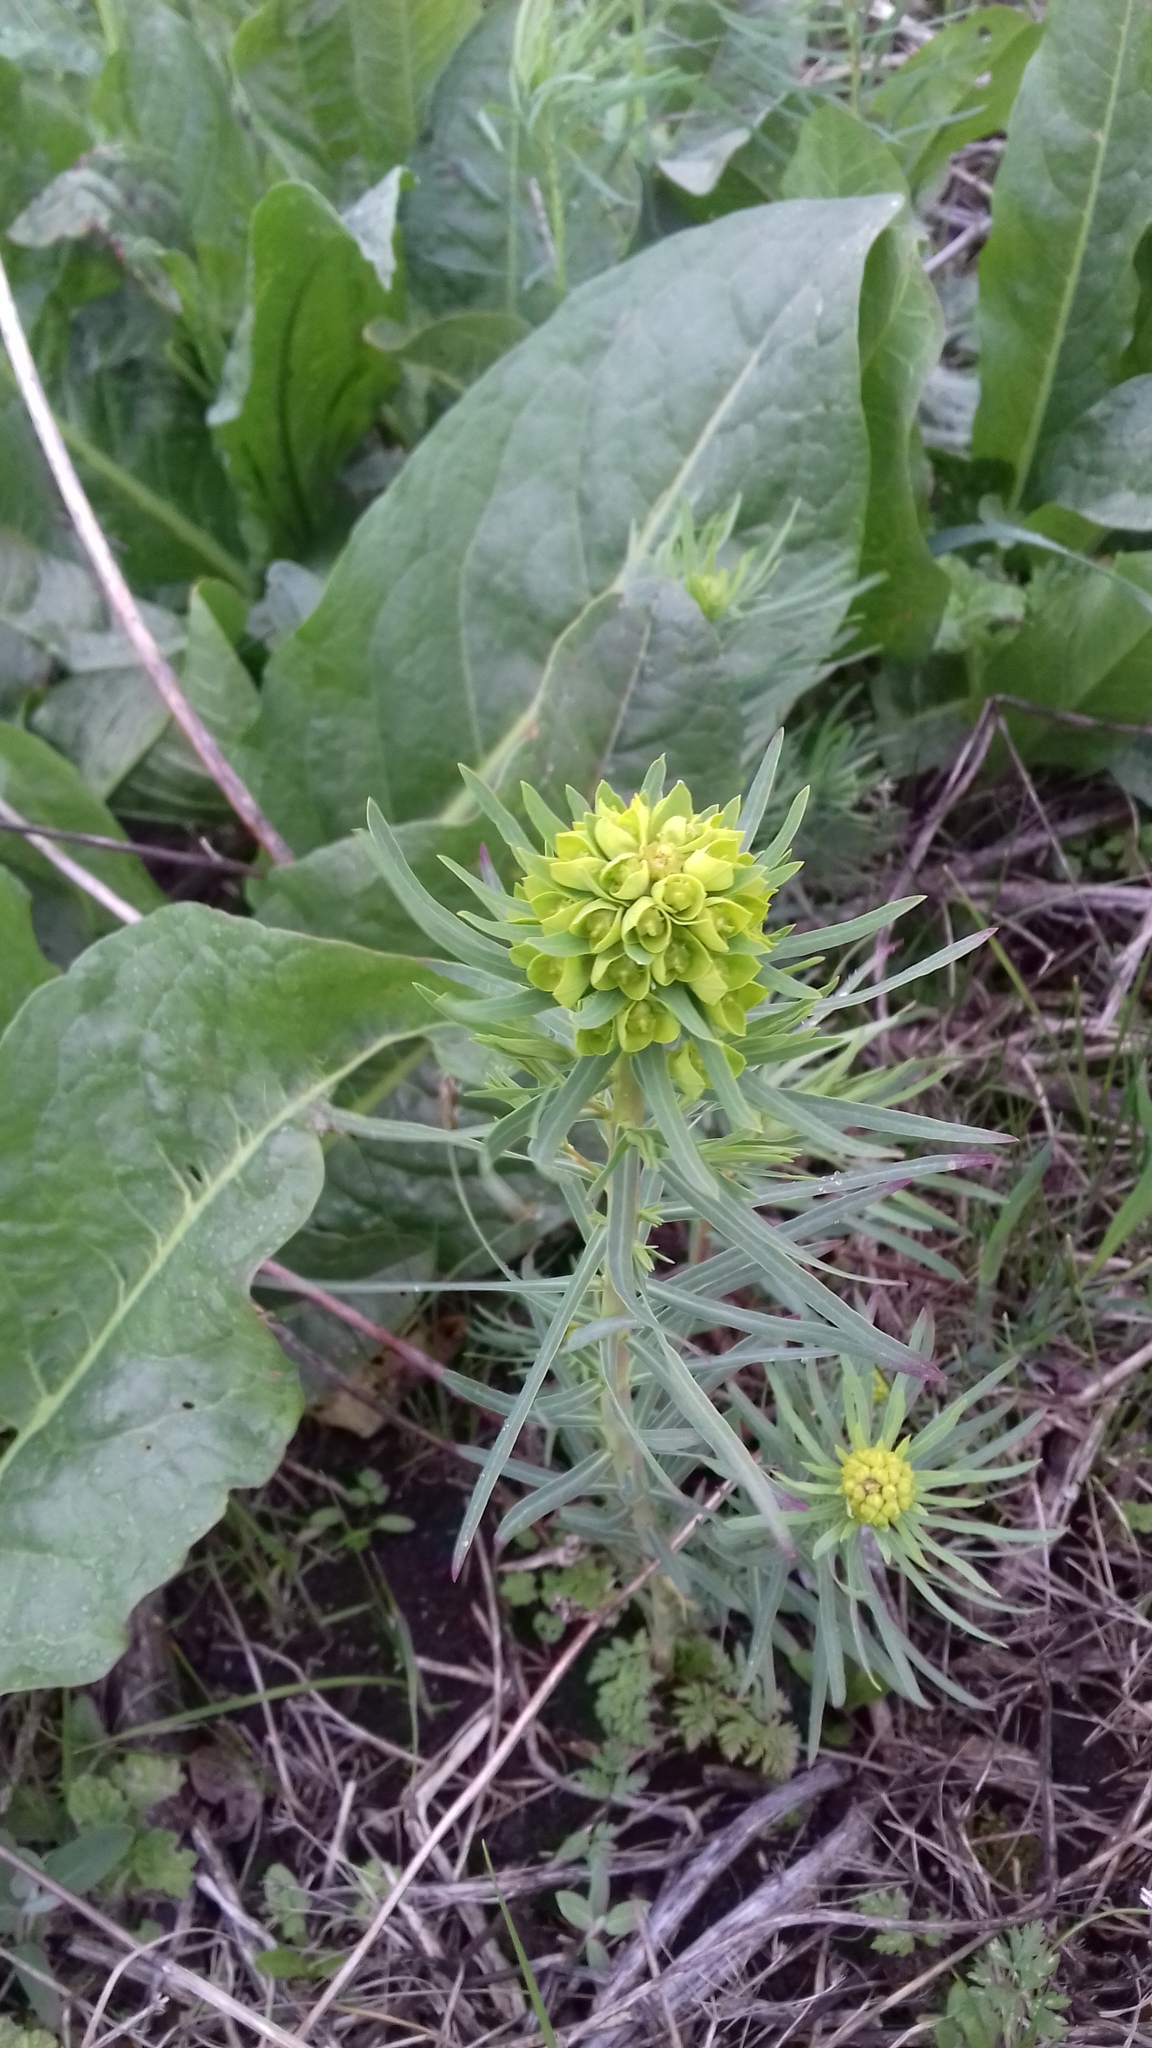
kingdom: Plantae
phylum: Tracheophyta
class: Magnoliopsida
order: Malpighiales
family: Euphorbiaceae
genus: Euphorbia
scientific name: Euphorbia cyparissias
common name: Cypress spurge
